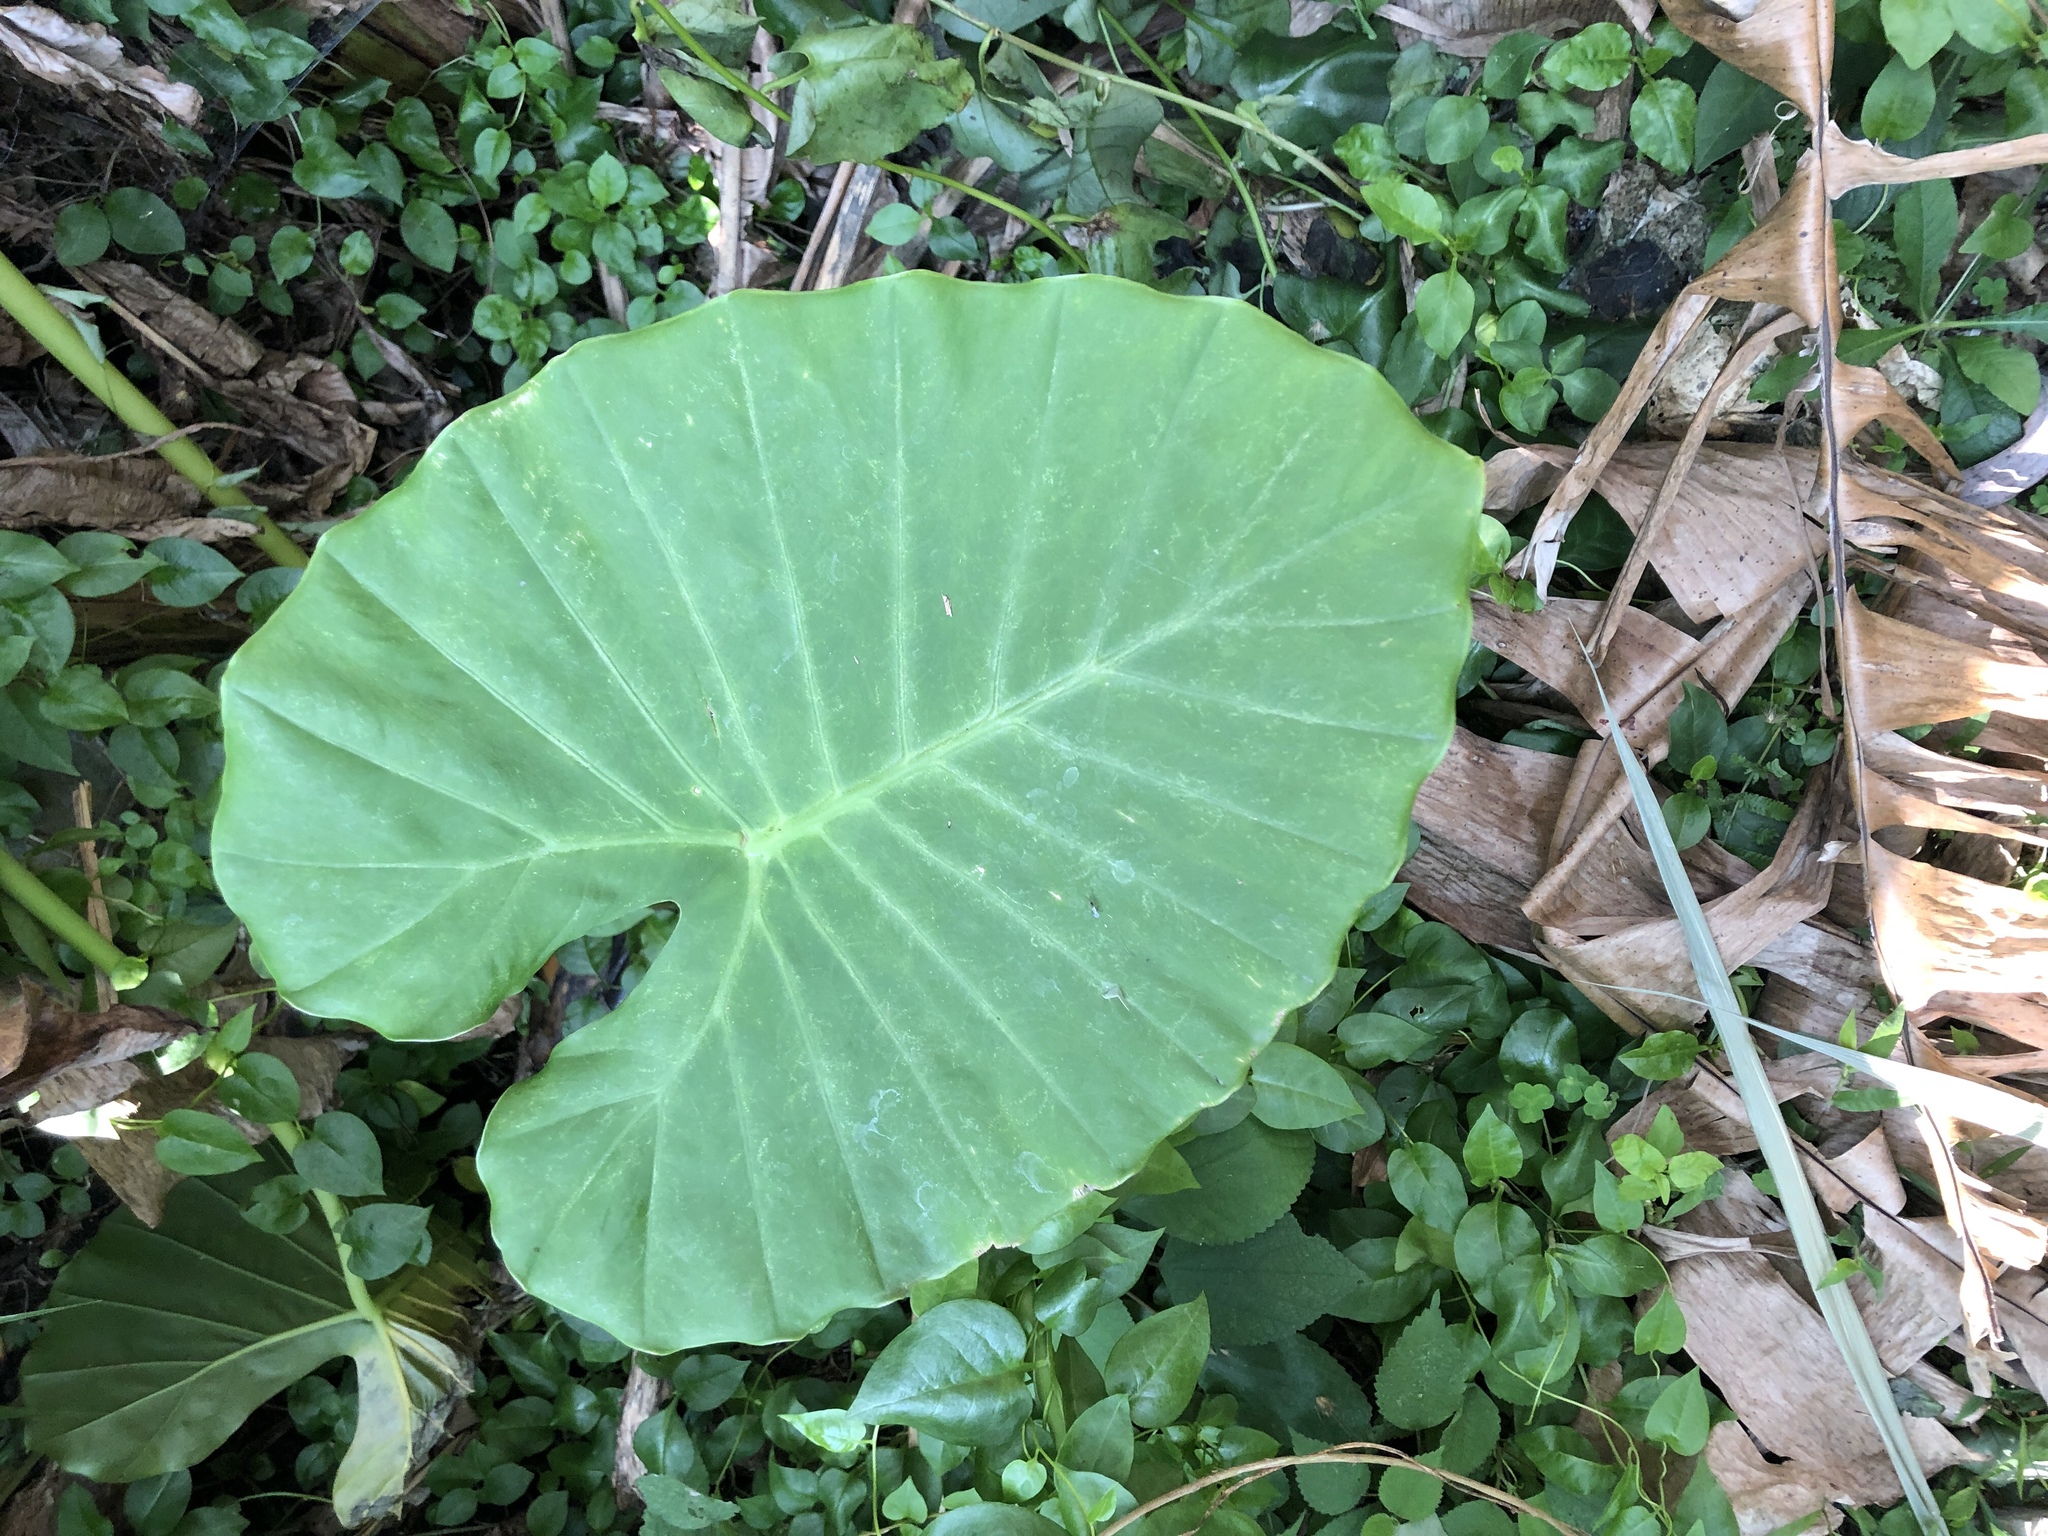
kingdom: Plantae
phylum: Tracheophyta
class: Liliopsida
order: Alismatales
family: Araceae
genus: Alocasia
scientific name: Alocasia odora
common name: Asian taro
